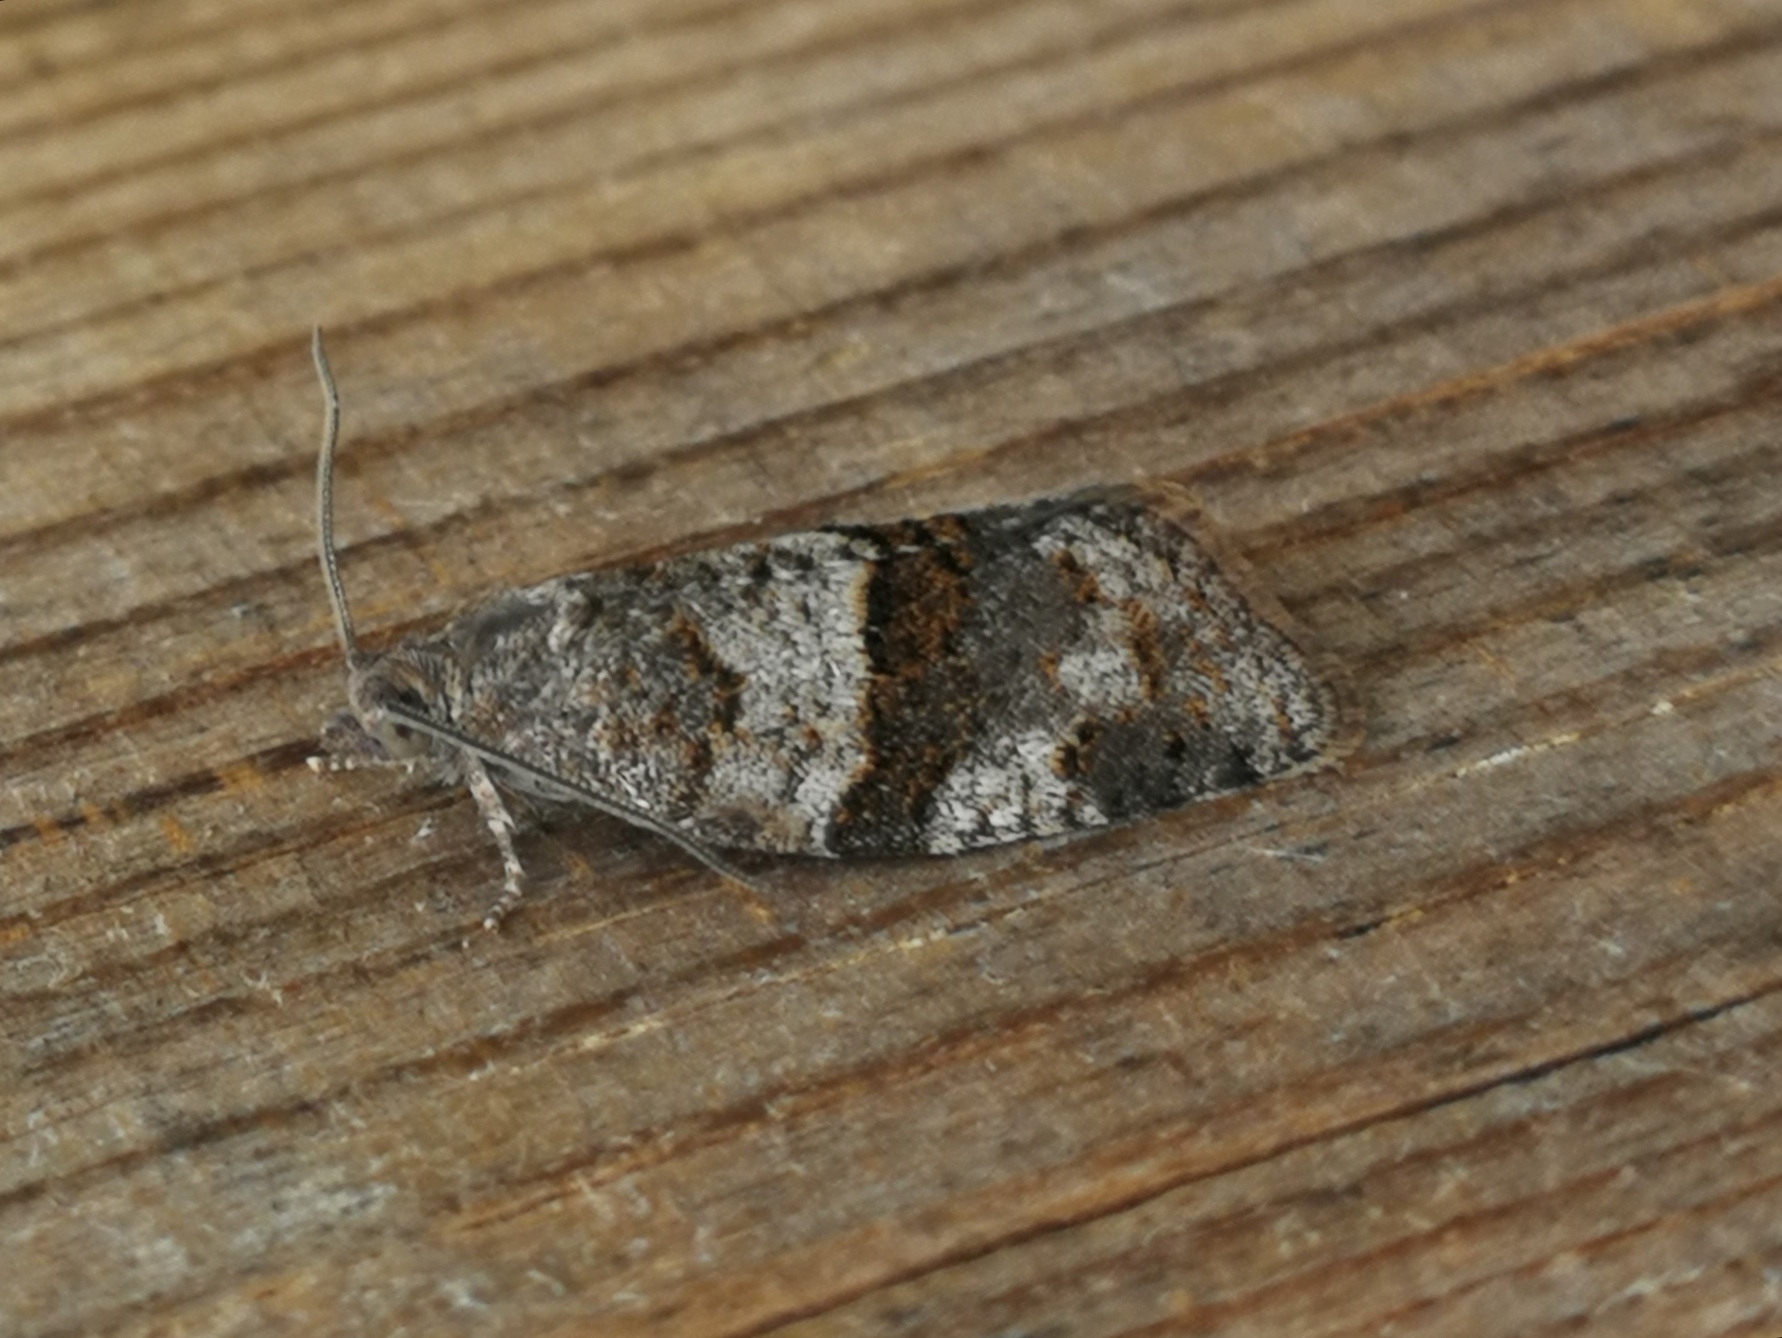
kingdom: Animalia
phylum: Arthropoda
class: Insecta
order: Lepidoptera
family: Tortricidae
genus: Syndemis
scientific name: Syndemis musculana
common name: Dark-barred twist
